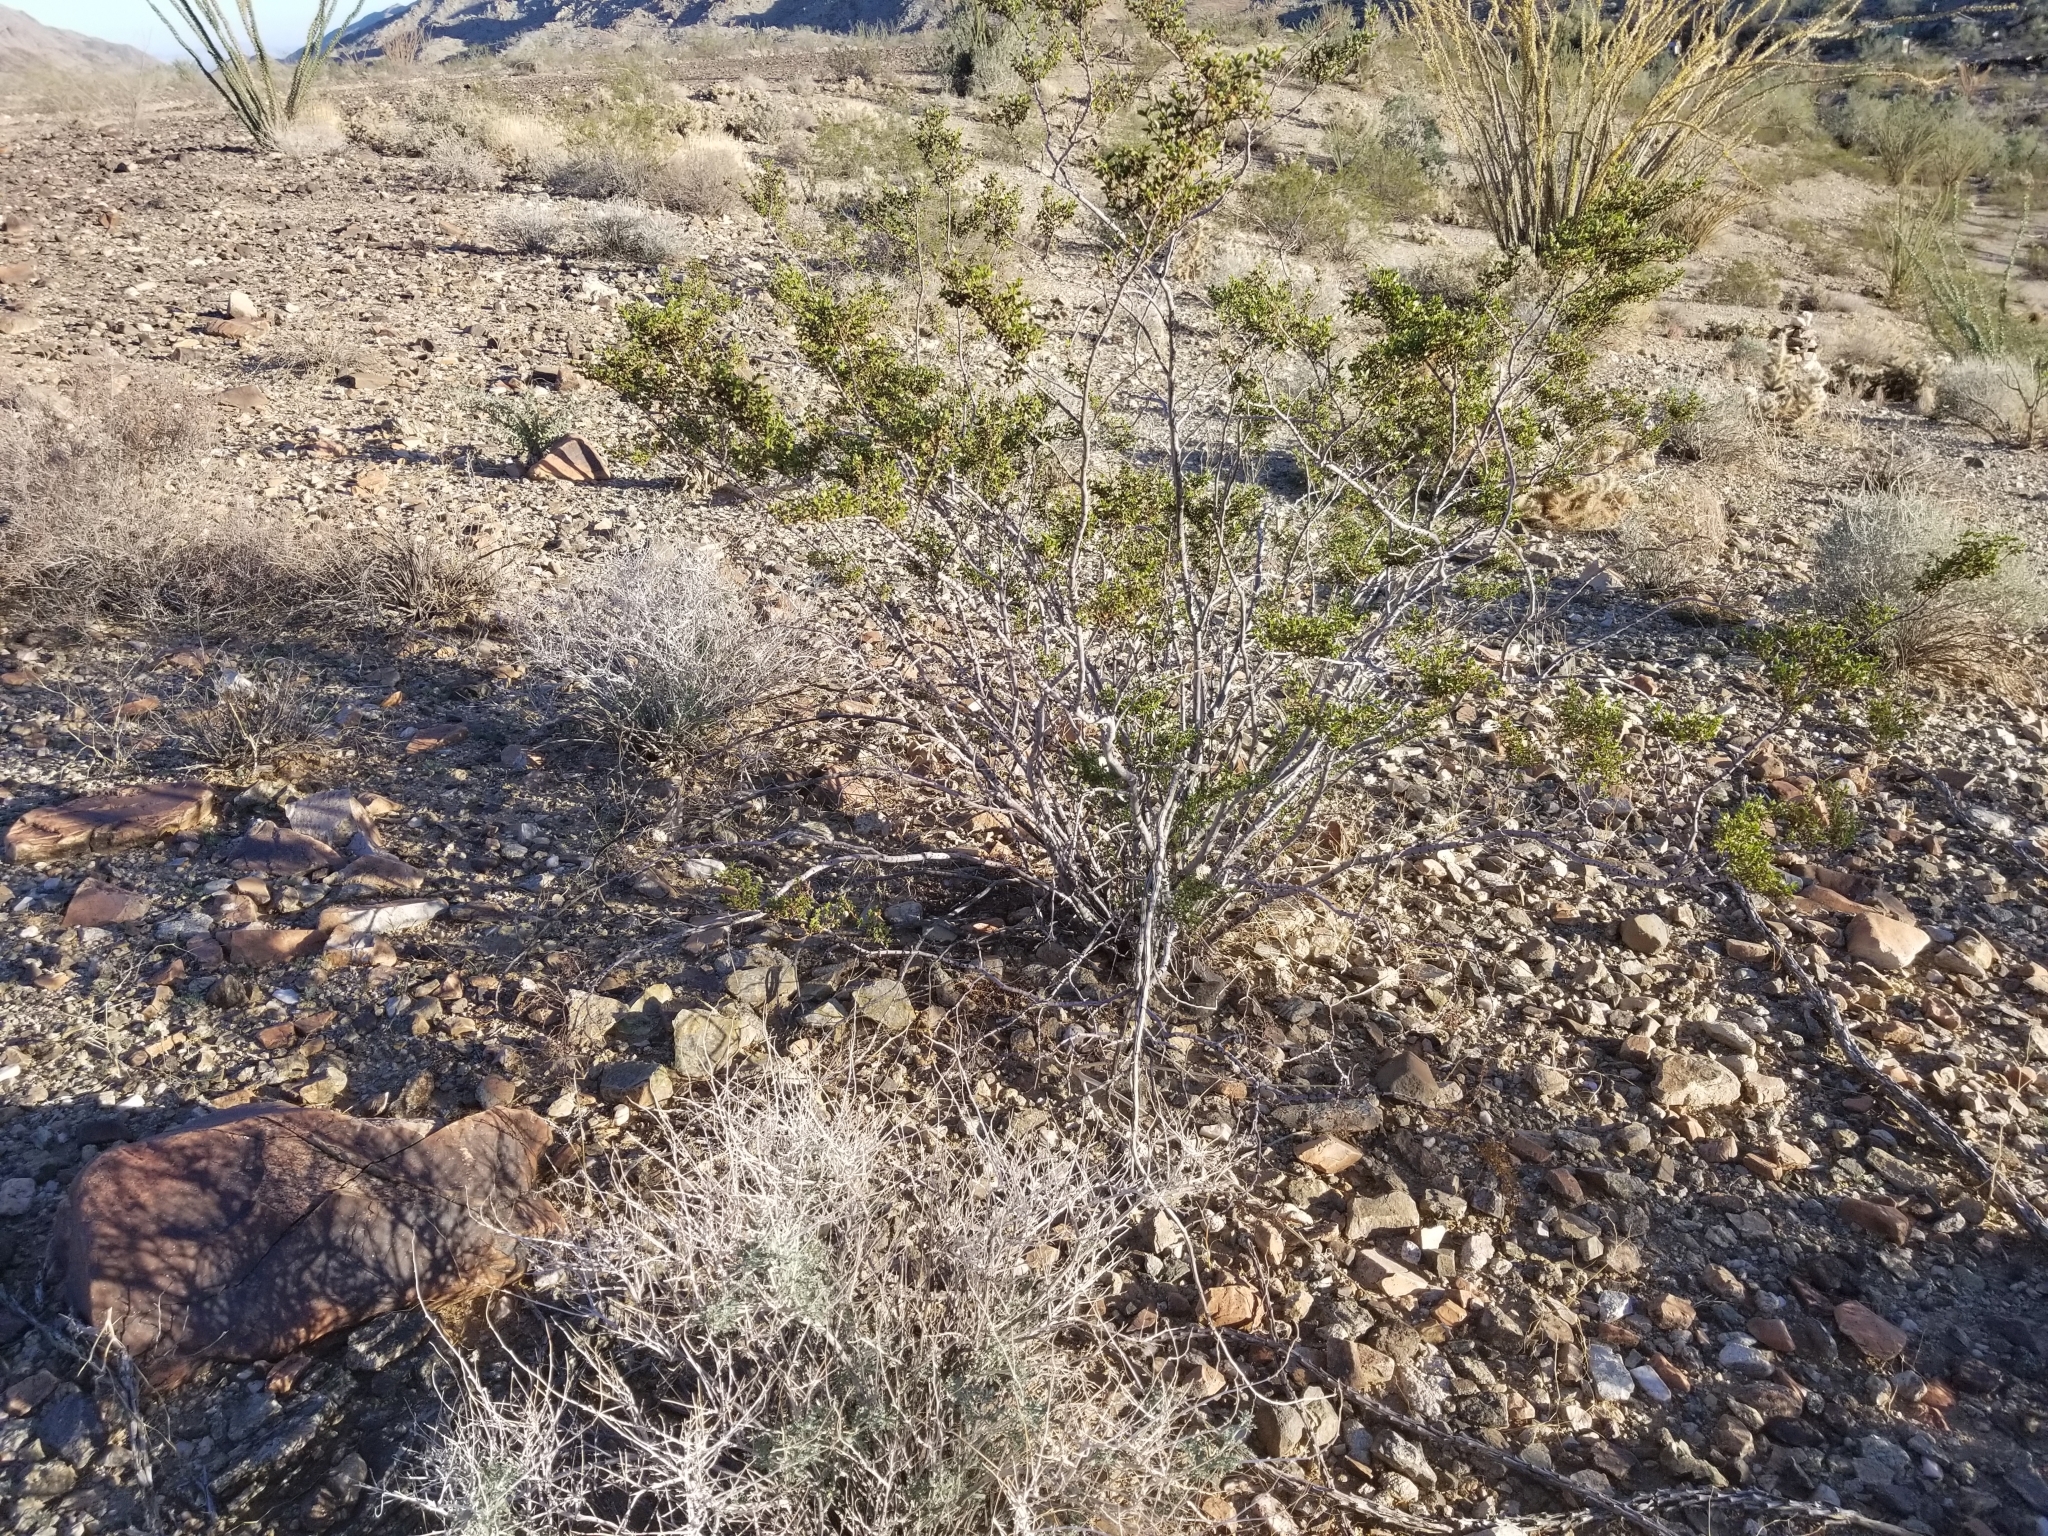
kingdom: Plantae
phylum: Tracheophyta
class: Magnoliopsida
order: Zygophyllales
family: Zygophyllaceae
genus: Larrea
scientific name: Larrea tridentata
